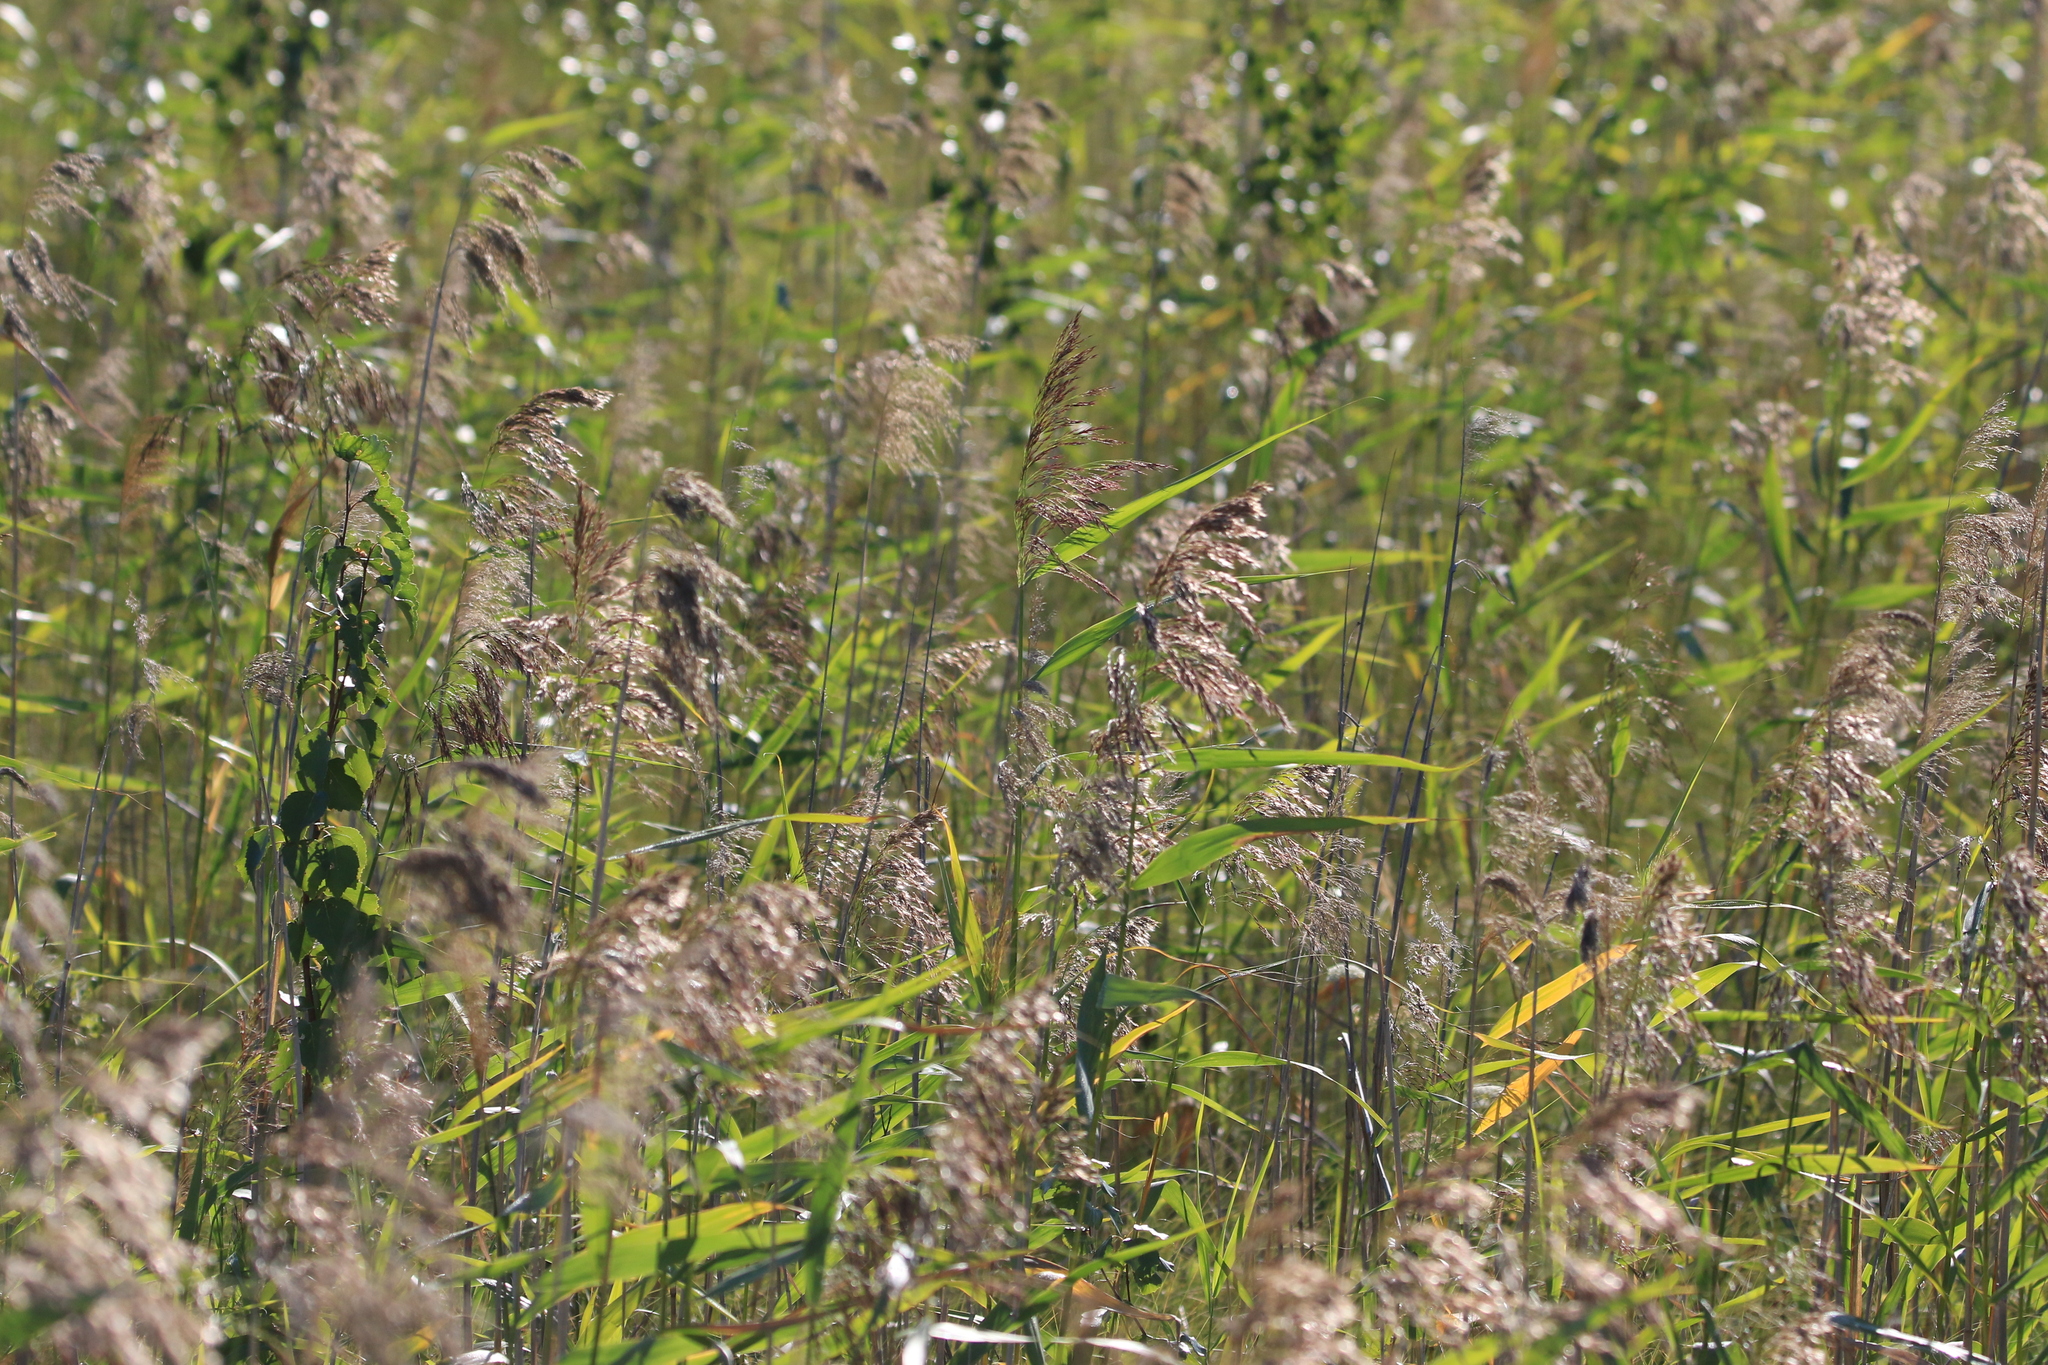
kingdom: Plantae
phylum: Tracheophyta
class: Liliopsida
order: Poales
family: Poaceae
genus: Phragmites
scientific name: Phragmites australis
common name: Common reed
